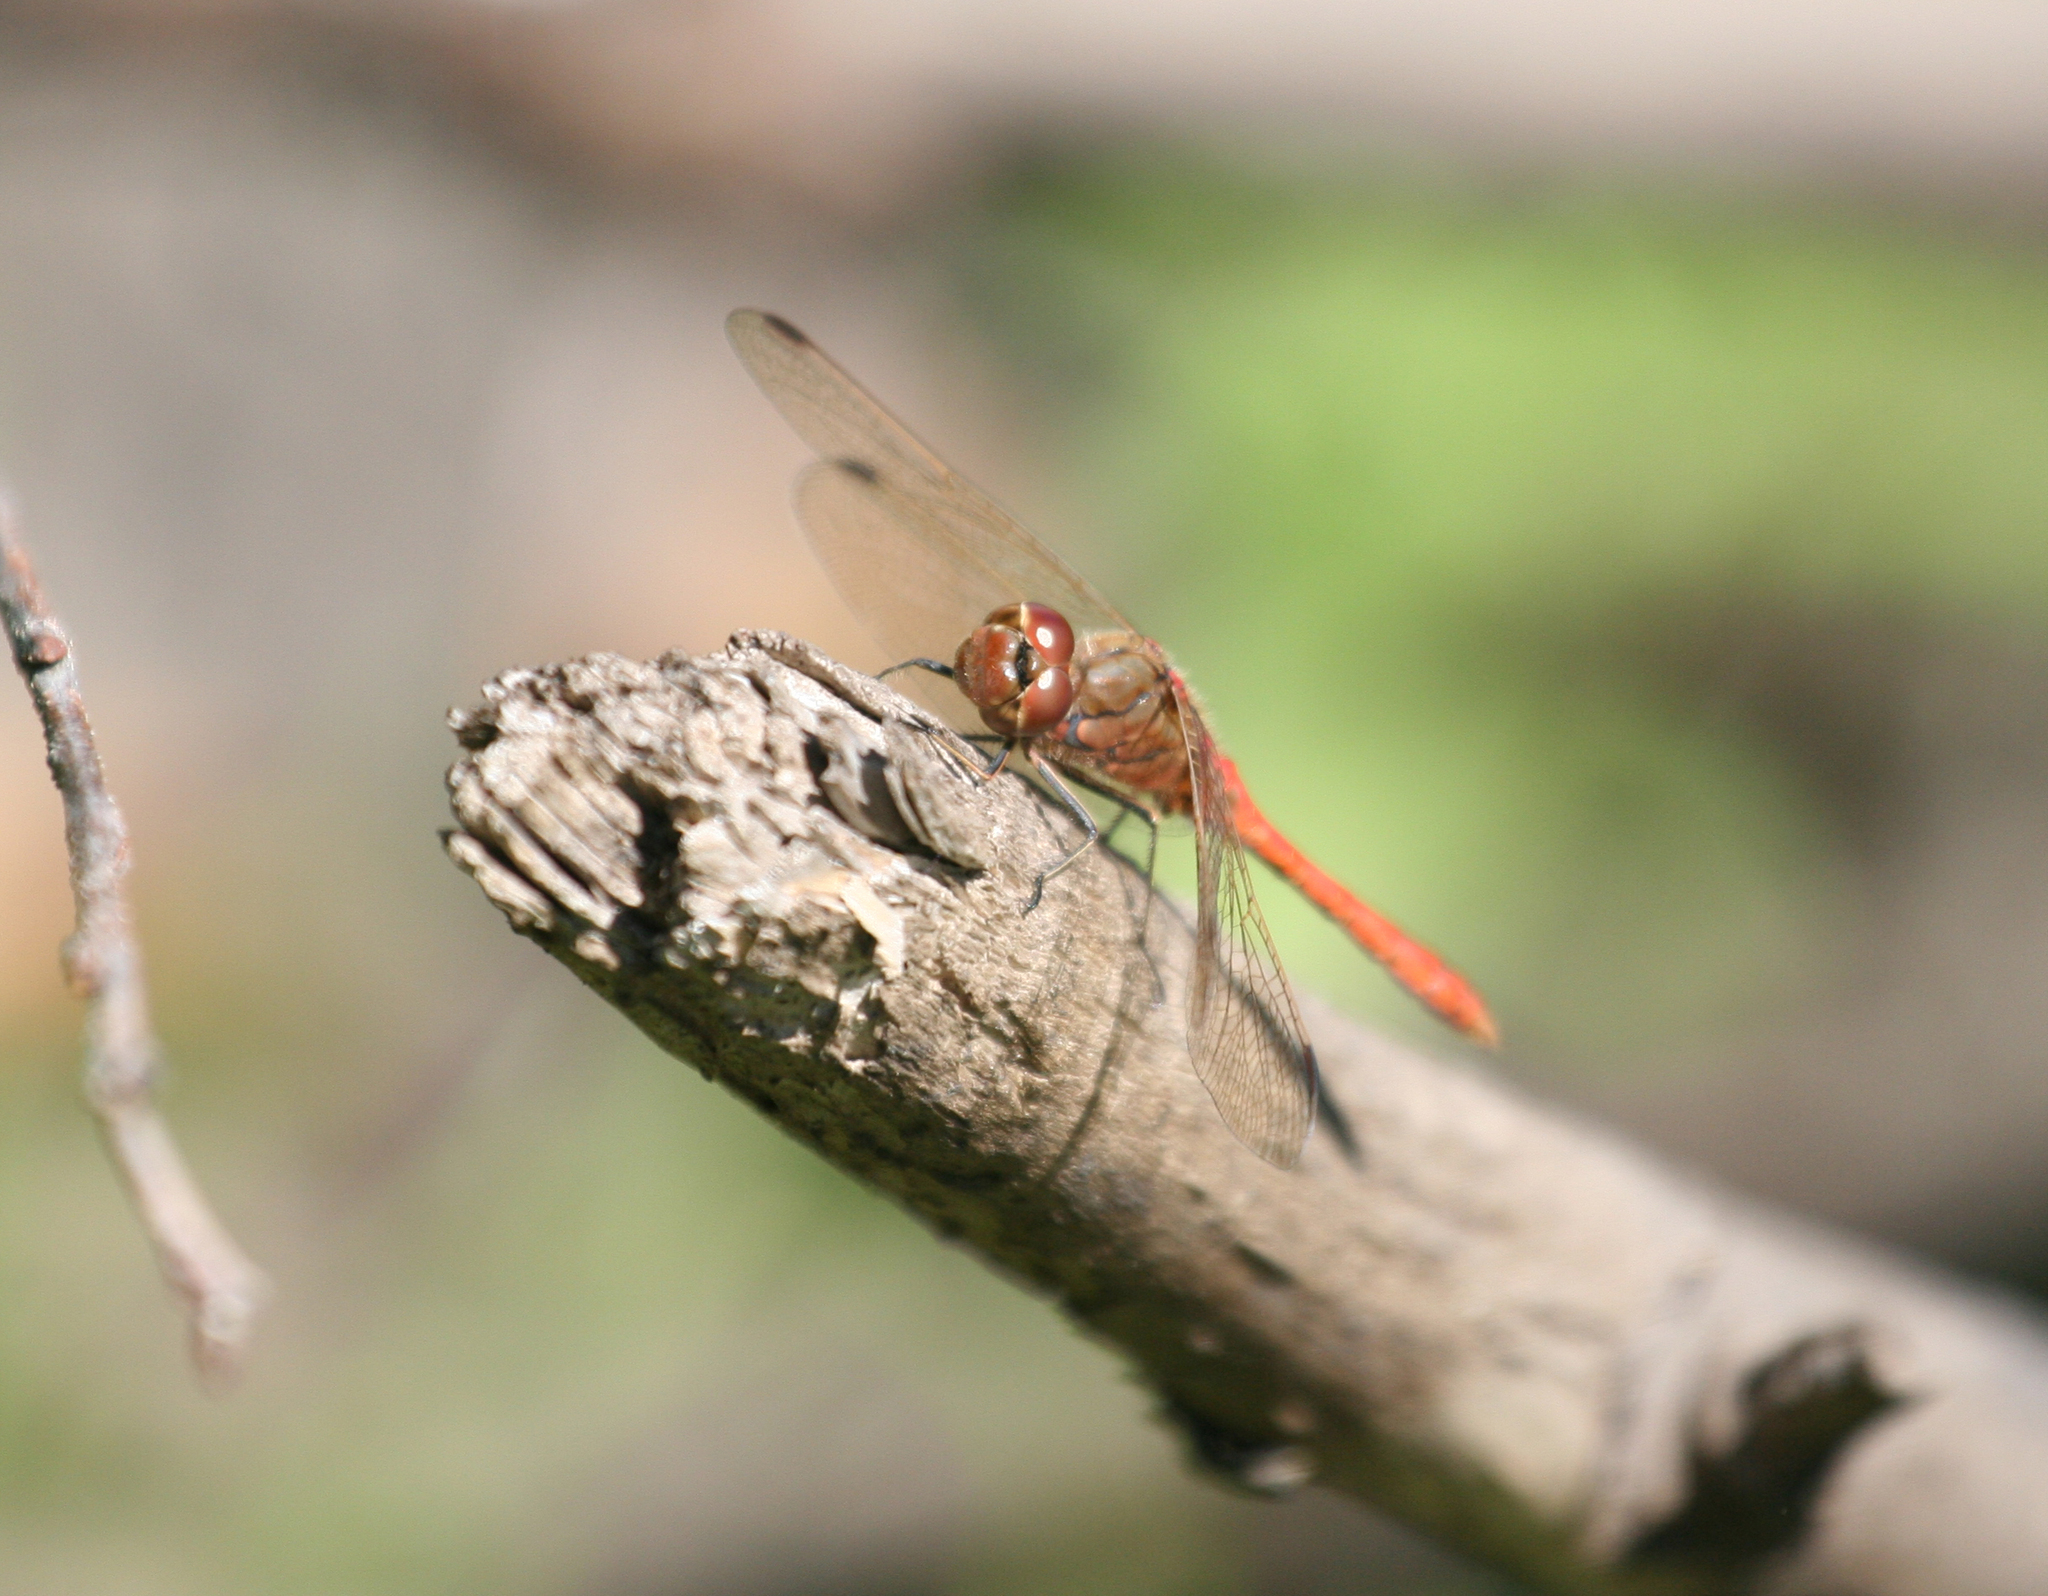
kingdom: Animalia
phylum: Arthropoda
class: Insecta
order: Odonata
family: Libellulidae
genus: Sympetrum
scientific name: Sympetrum vulgatum
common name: Vagrant darter
